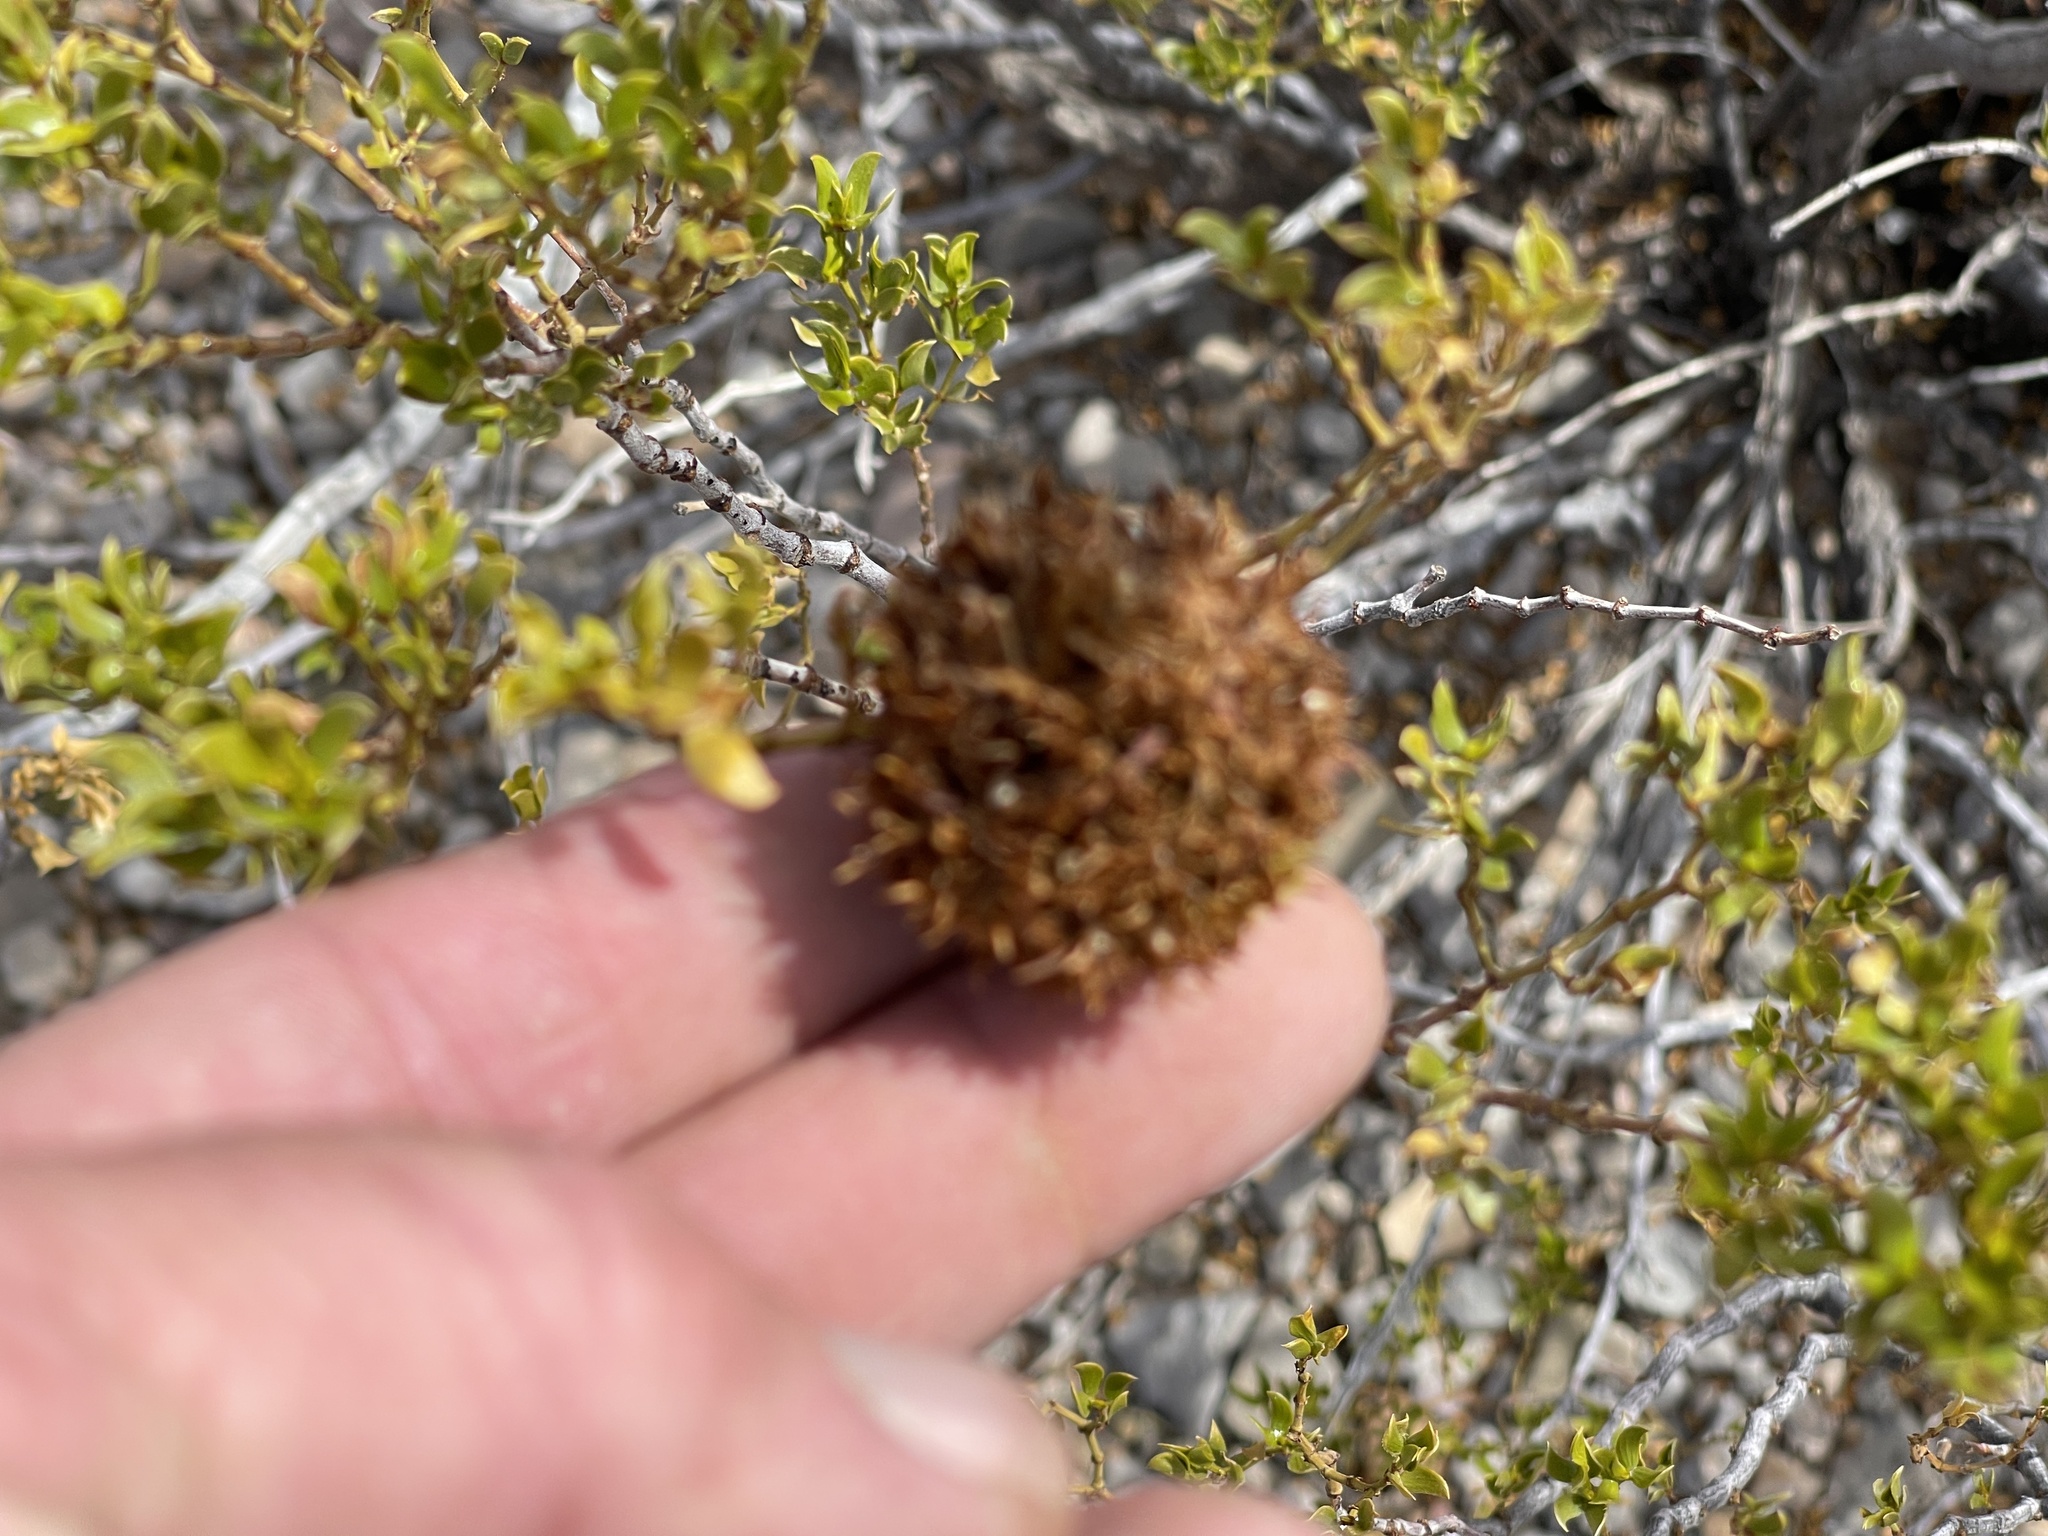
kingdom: Animalia
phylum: Arthropoda
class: Insecta
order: Diptera
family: Cecidomyiidae
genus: Asphondylia
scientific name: Asphondylia auripila
